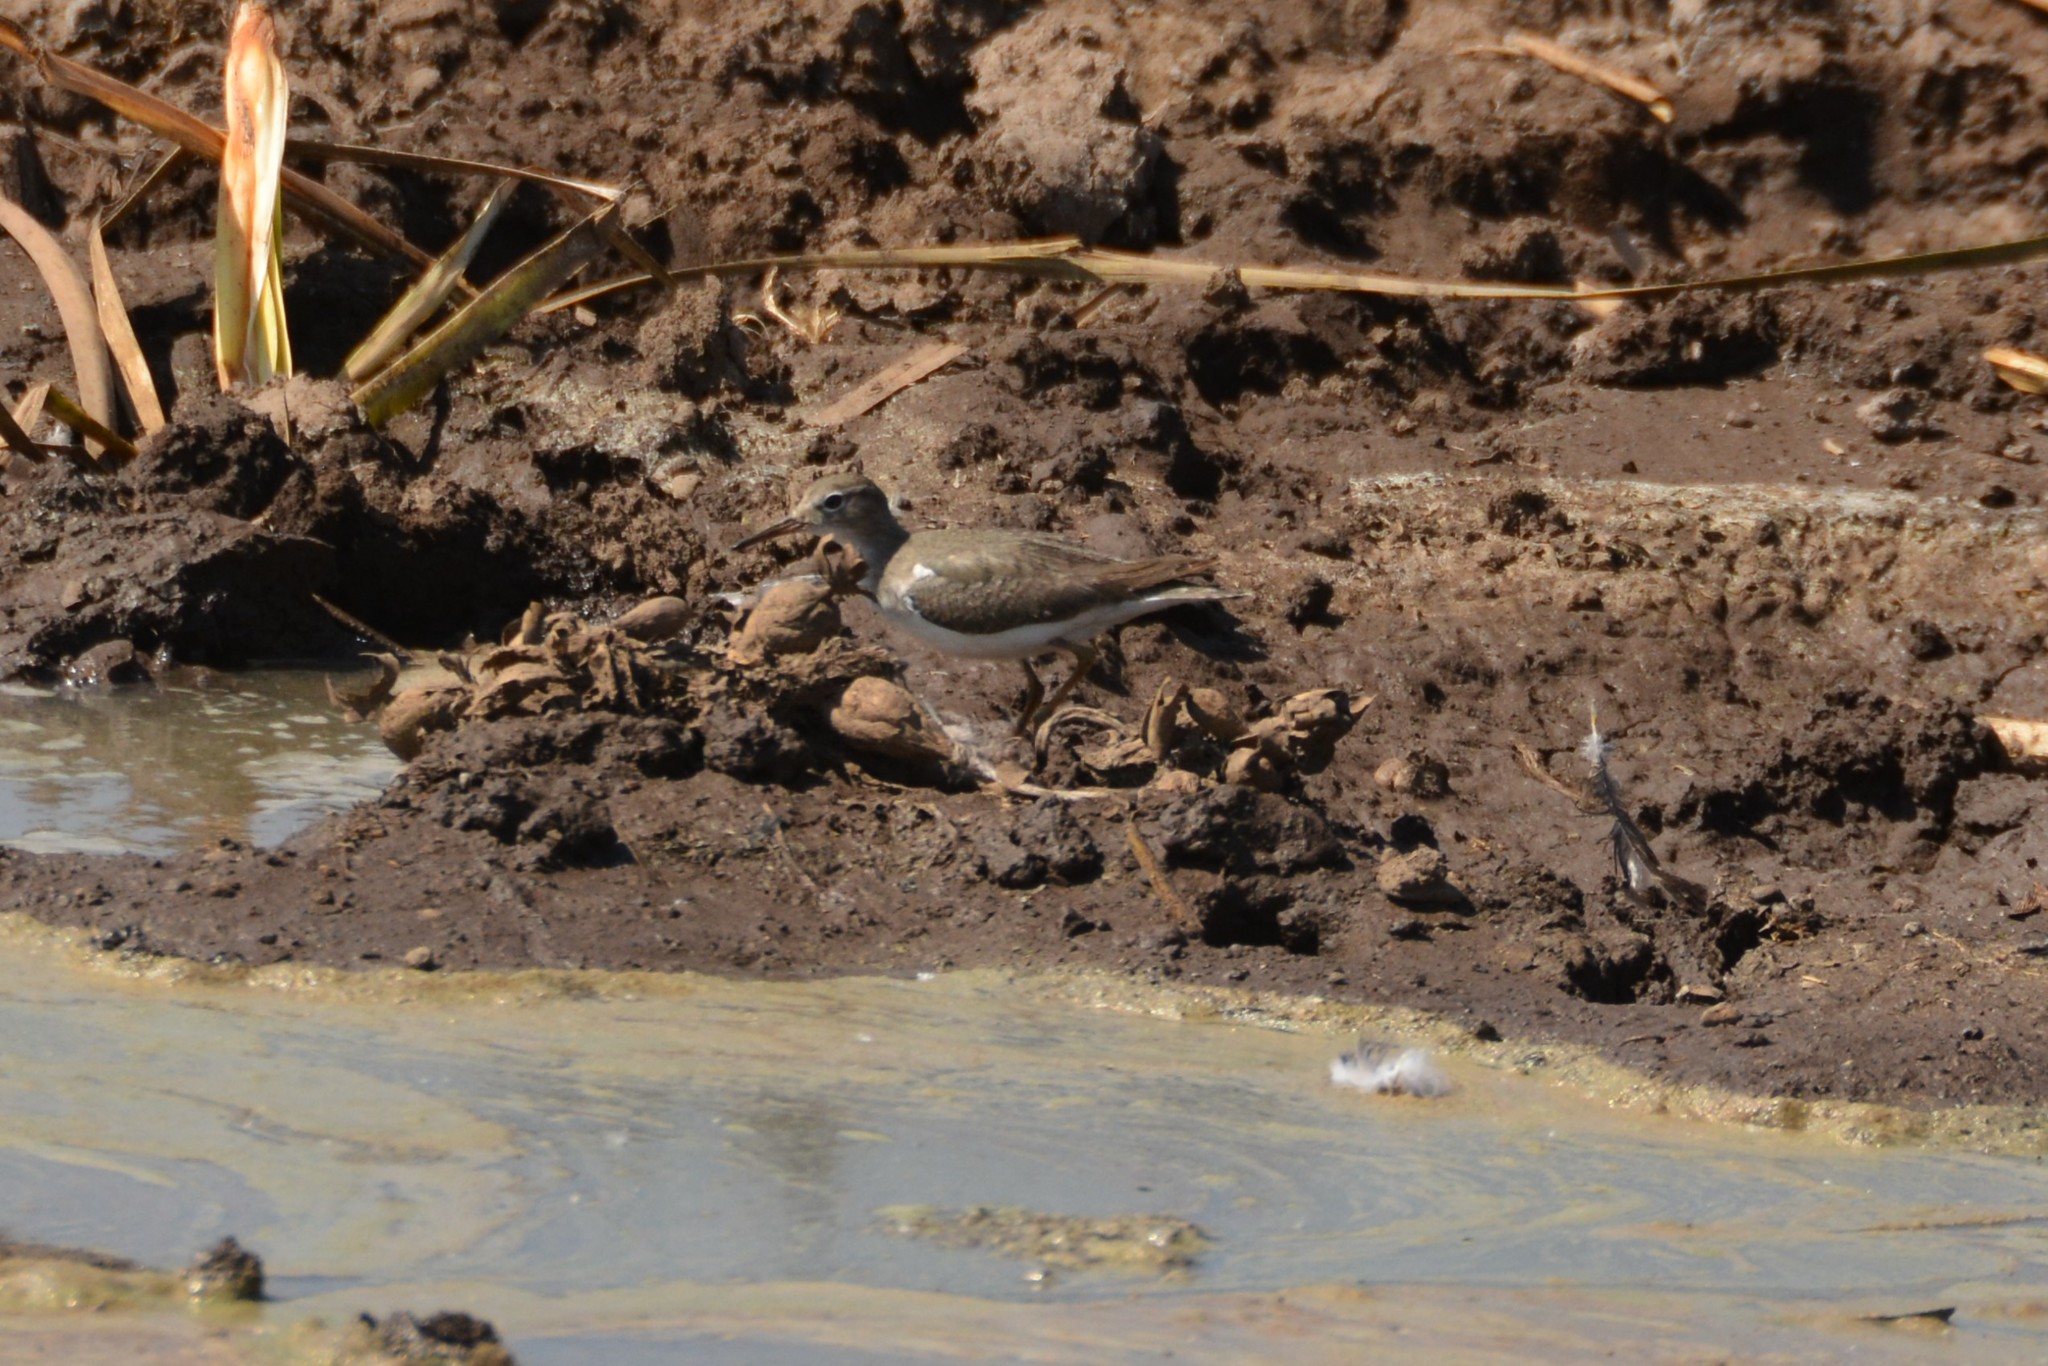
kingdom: Animalia
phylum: Chordata
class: Aves
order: Charadriiformes
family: Scolopacidae
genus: Actitis
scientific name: Actitis macularius
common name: Spotted sandpiper
